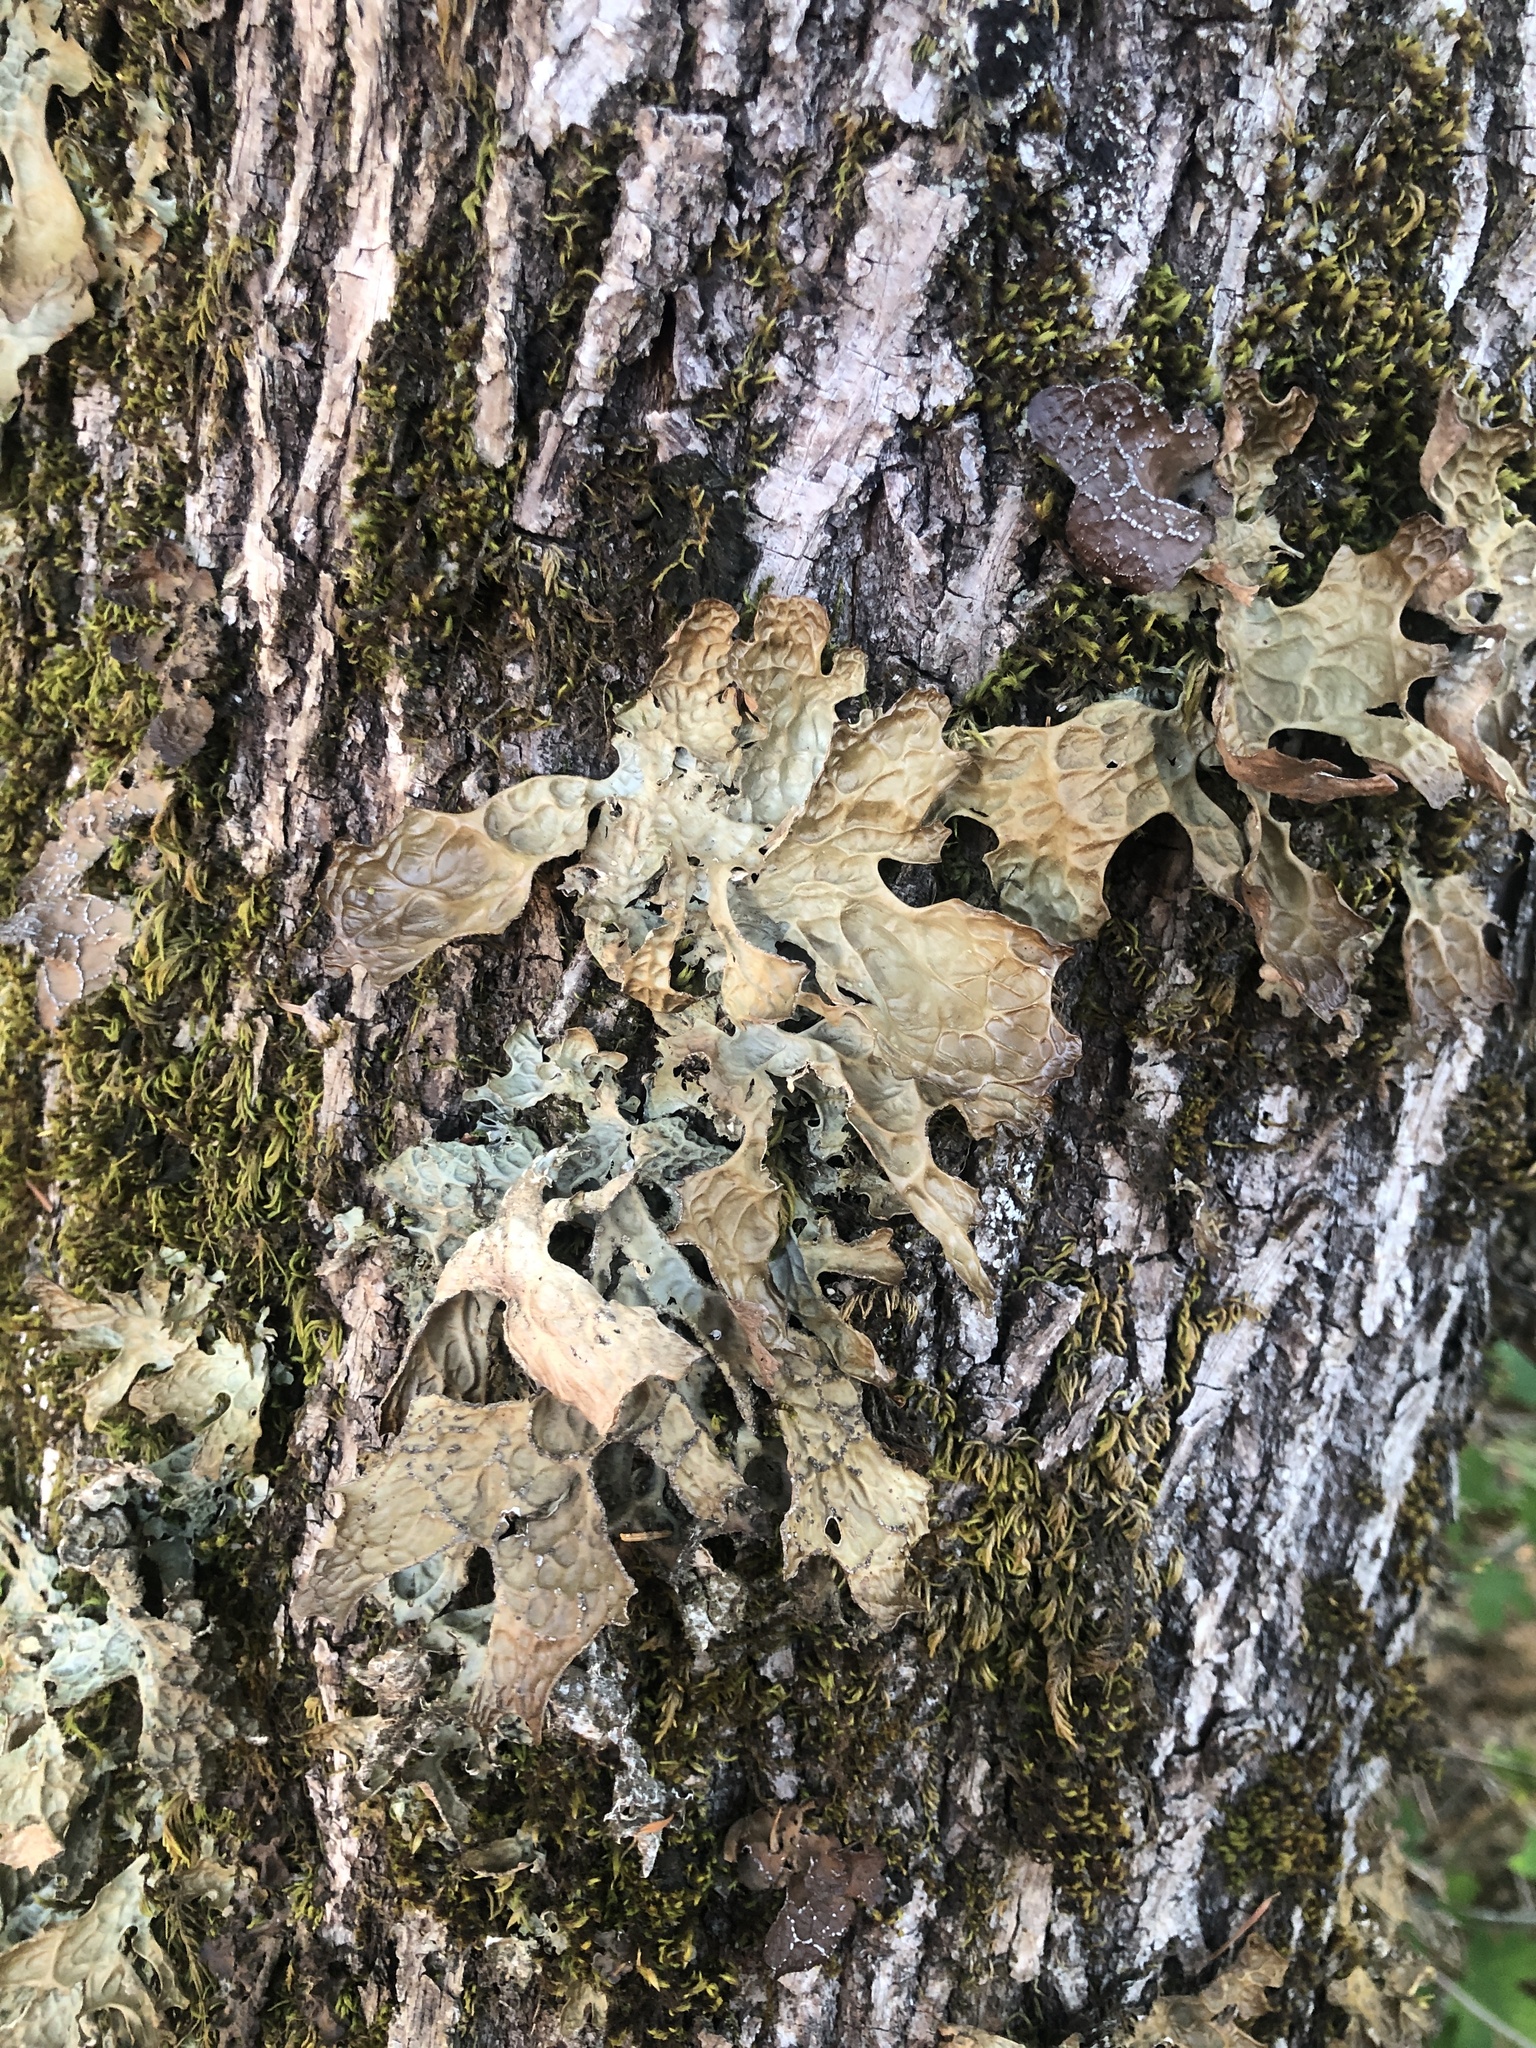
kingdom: Fungi
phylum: Ascomycota
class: Lecanoromycetes
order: Peltigerales
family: Lobariaceae
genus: Lobaria
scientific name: Lobaria pulmonaria
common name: Lungwort
